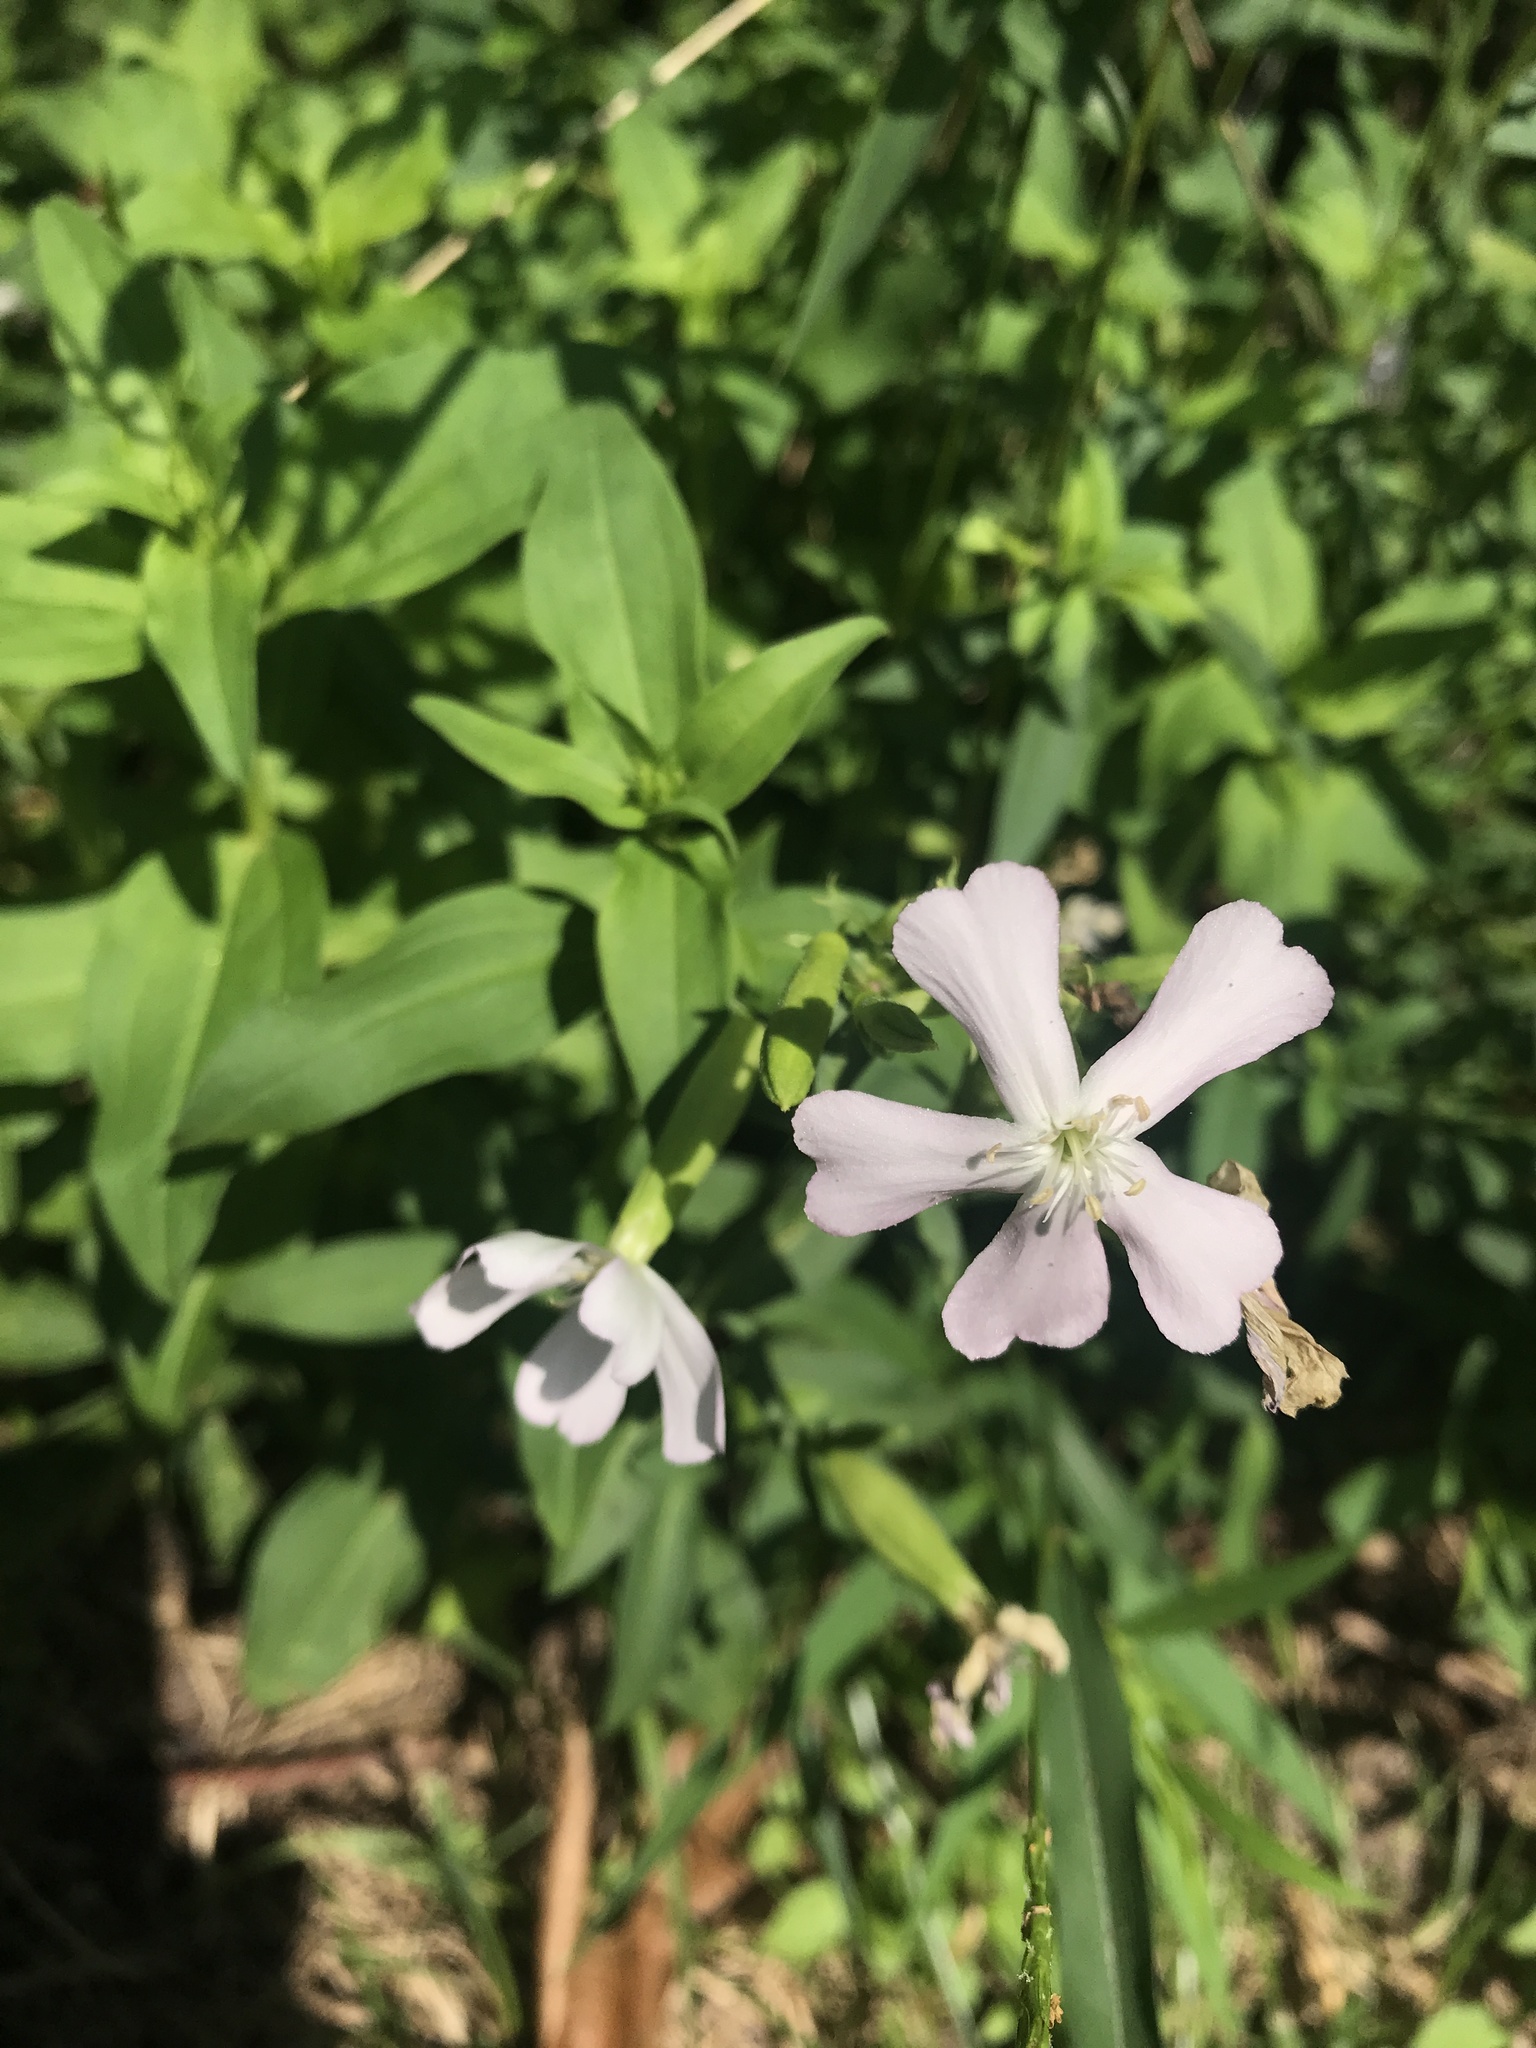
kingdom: Plantae
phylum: Tracheophyta
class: Magnoliopsida
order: Caryophyllales
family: Caryophyllaceae
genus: Saponaria
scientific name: Saponaria officinalis
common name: Soapwort
